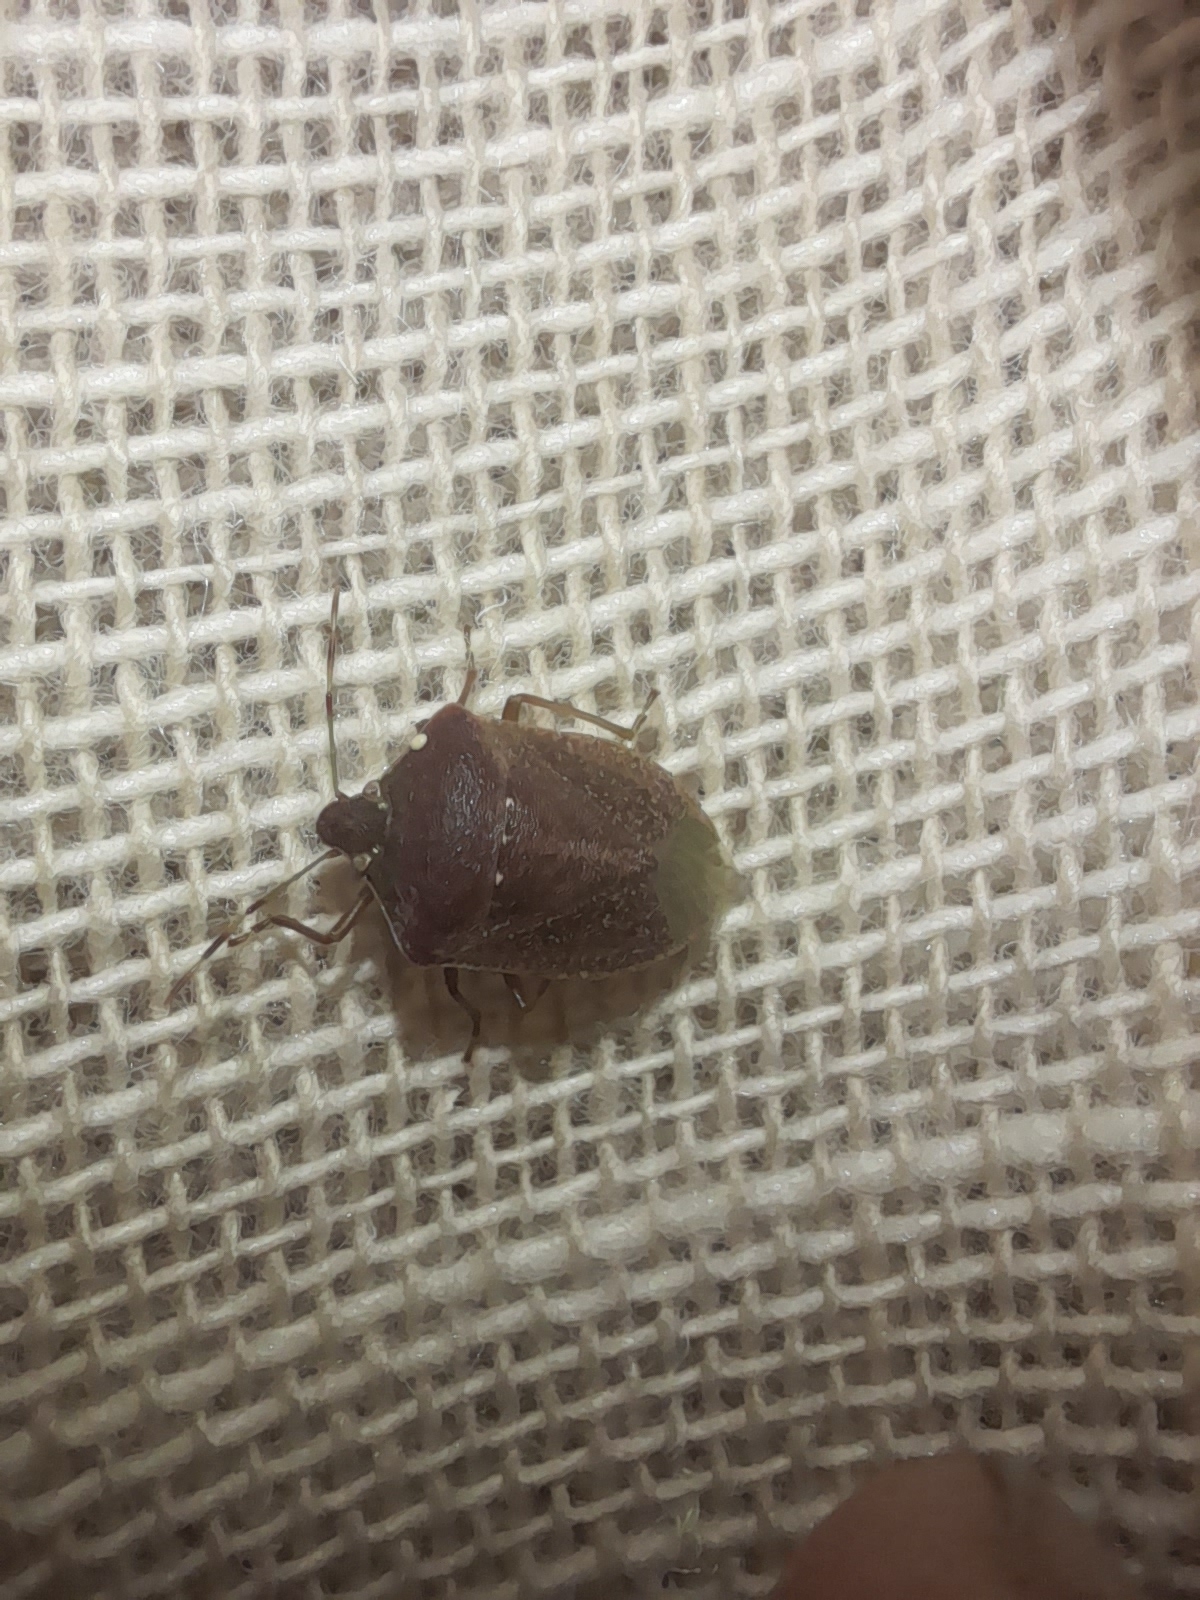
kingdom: Animalia
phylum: Arthropoda
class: Insecta
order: Hemiptera
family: Pentatomidae
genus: Nezara
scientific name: Nezara viridula
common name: Southern green stink bug
